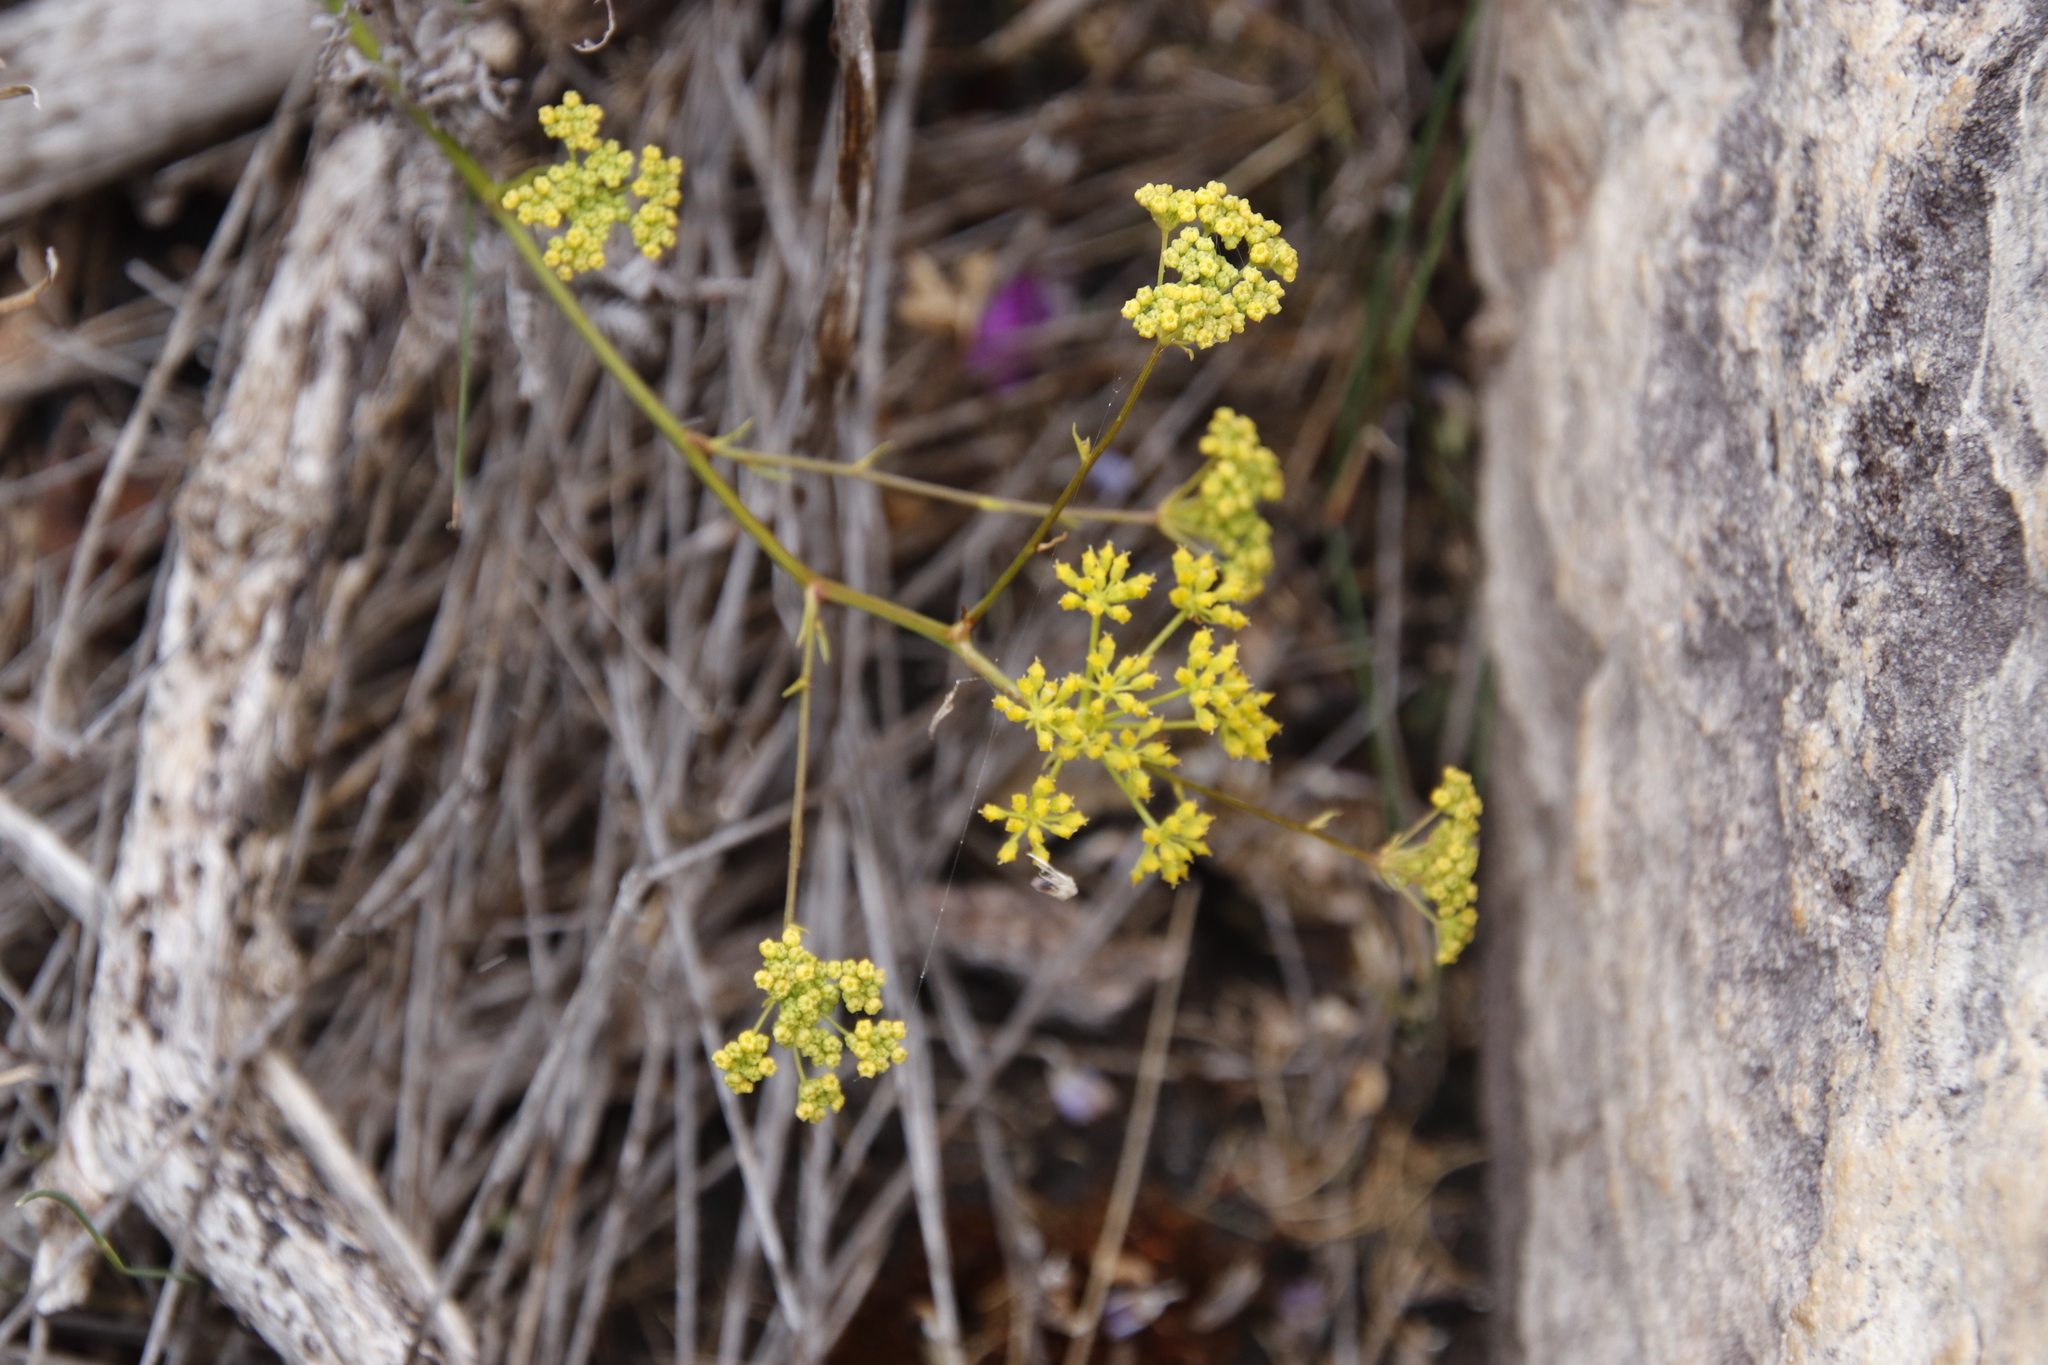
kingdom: Plantae
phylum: Tracheophyta
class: Magnoliopsida
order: Apiales
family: Apiaceae
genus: Glia
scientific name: Glia prolifera
